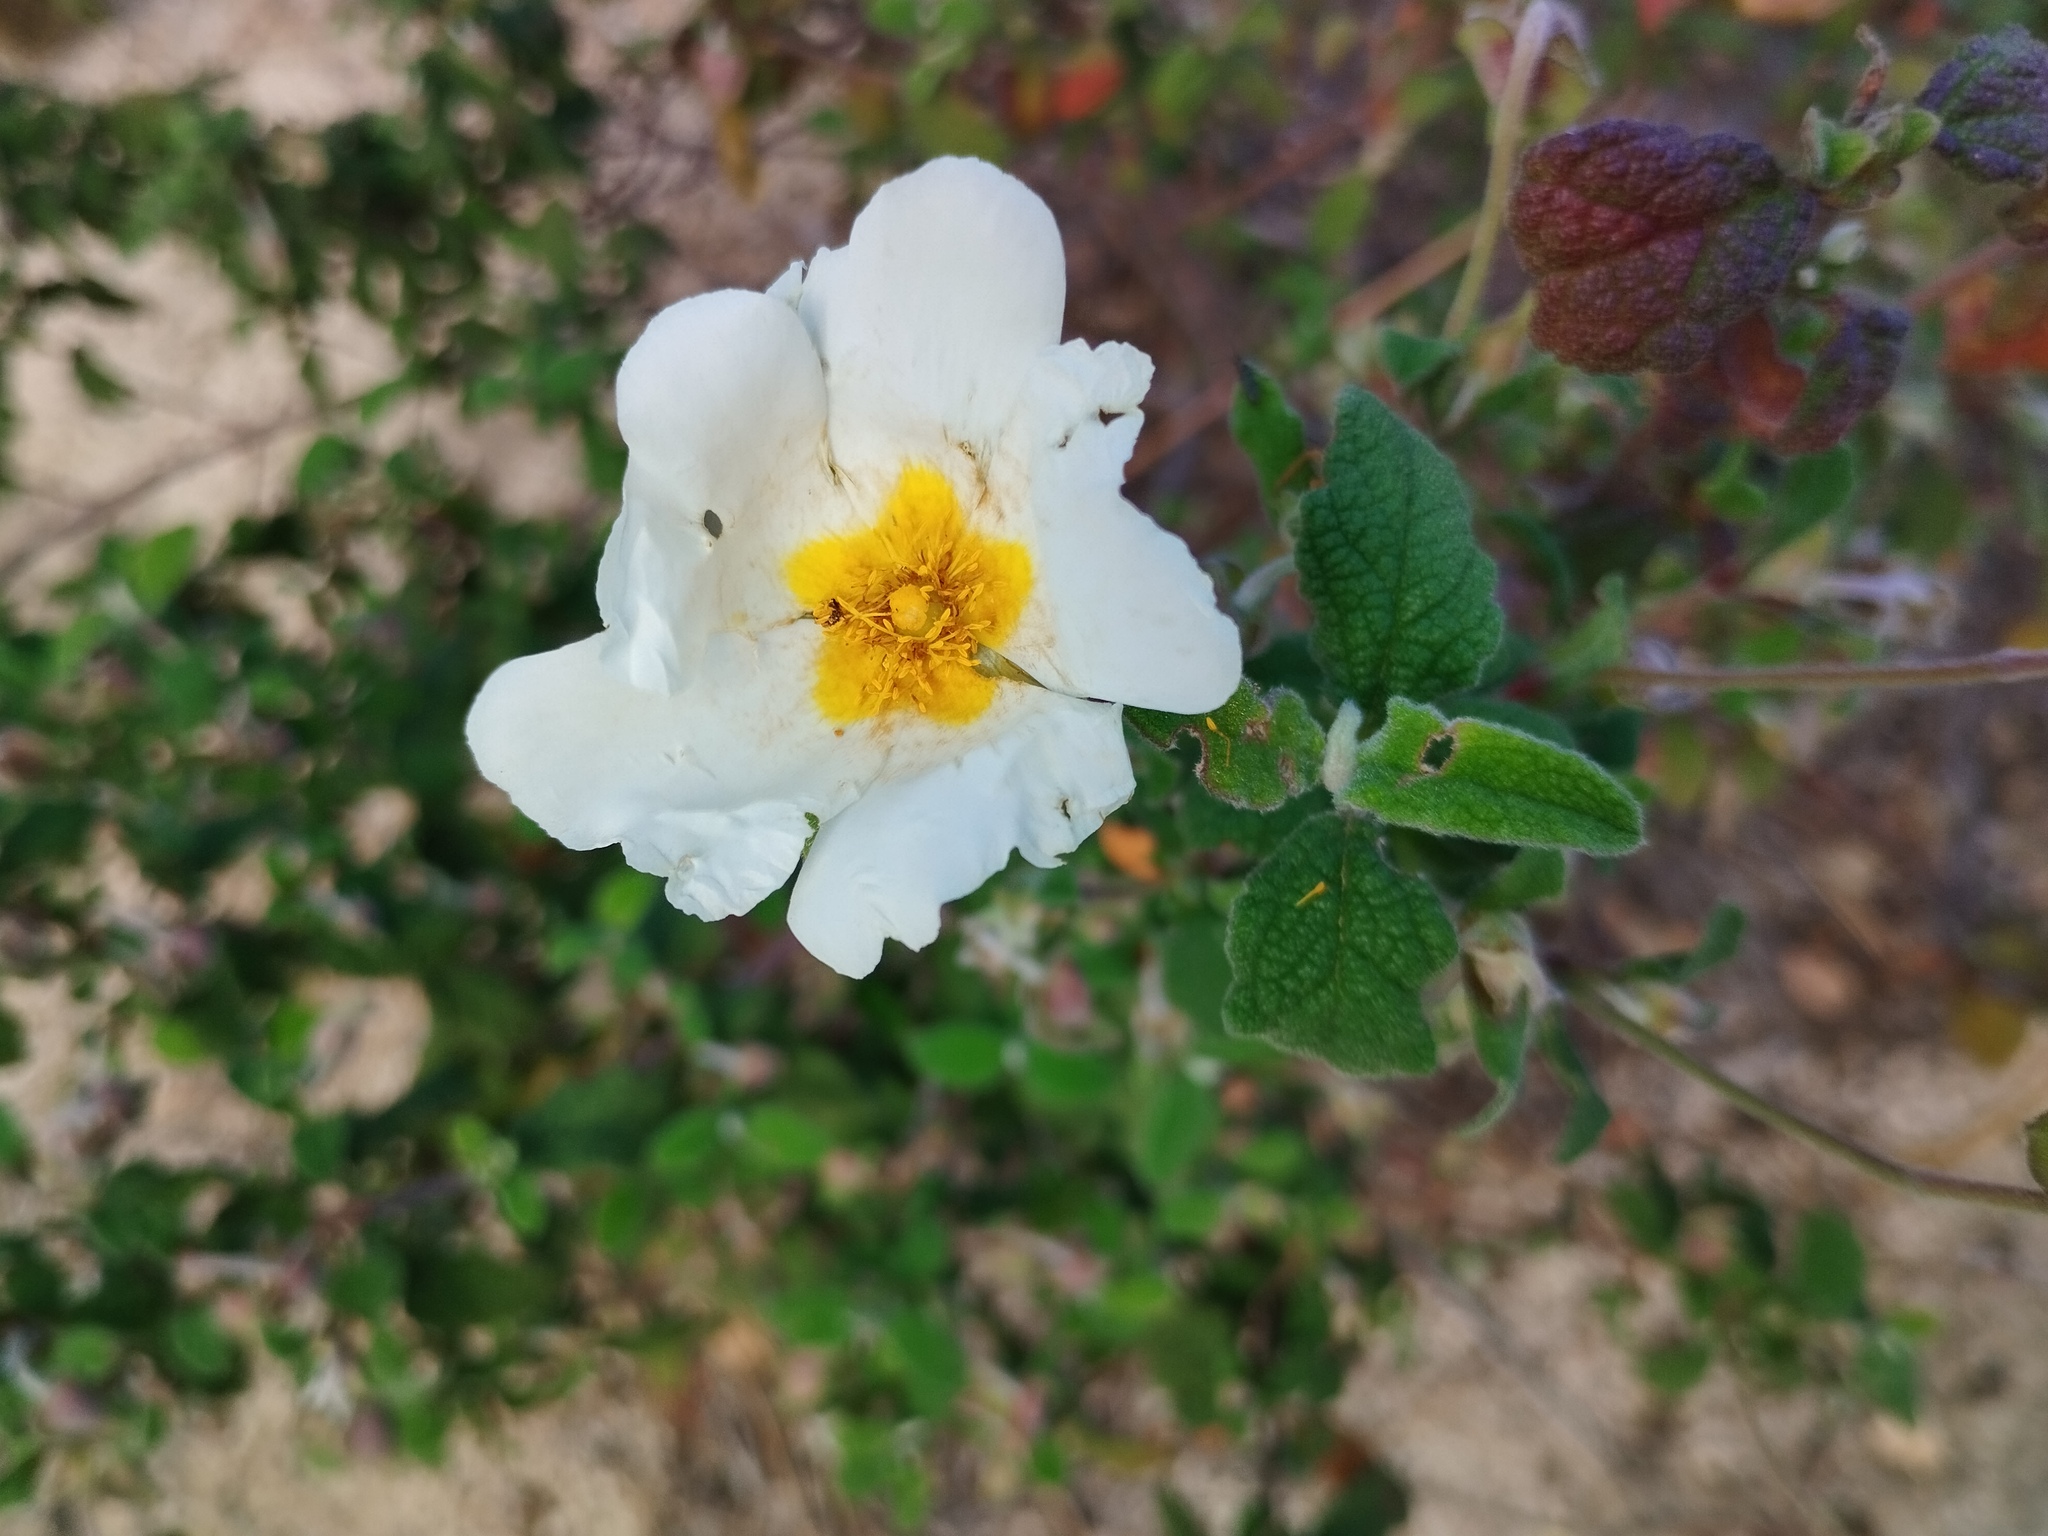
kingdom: Plantae
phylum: Tracheophyta
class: Magnoliopsida
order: Malvales
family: Cistaceae
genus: Cistus
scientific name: Cistus salviifolius
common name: Salvia cistus
